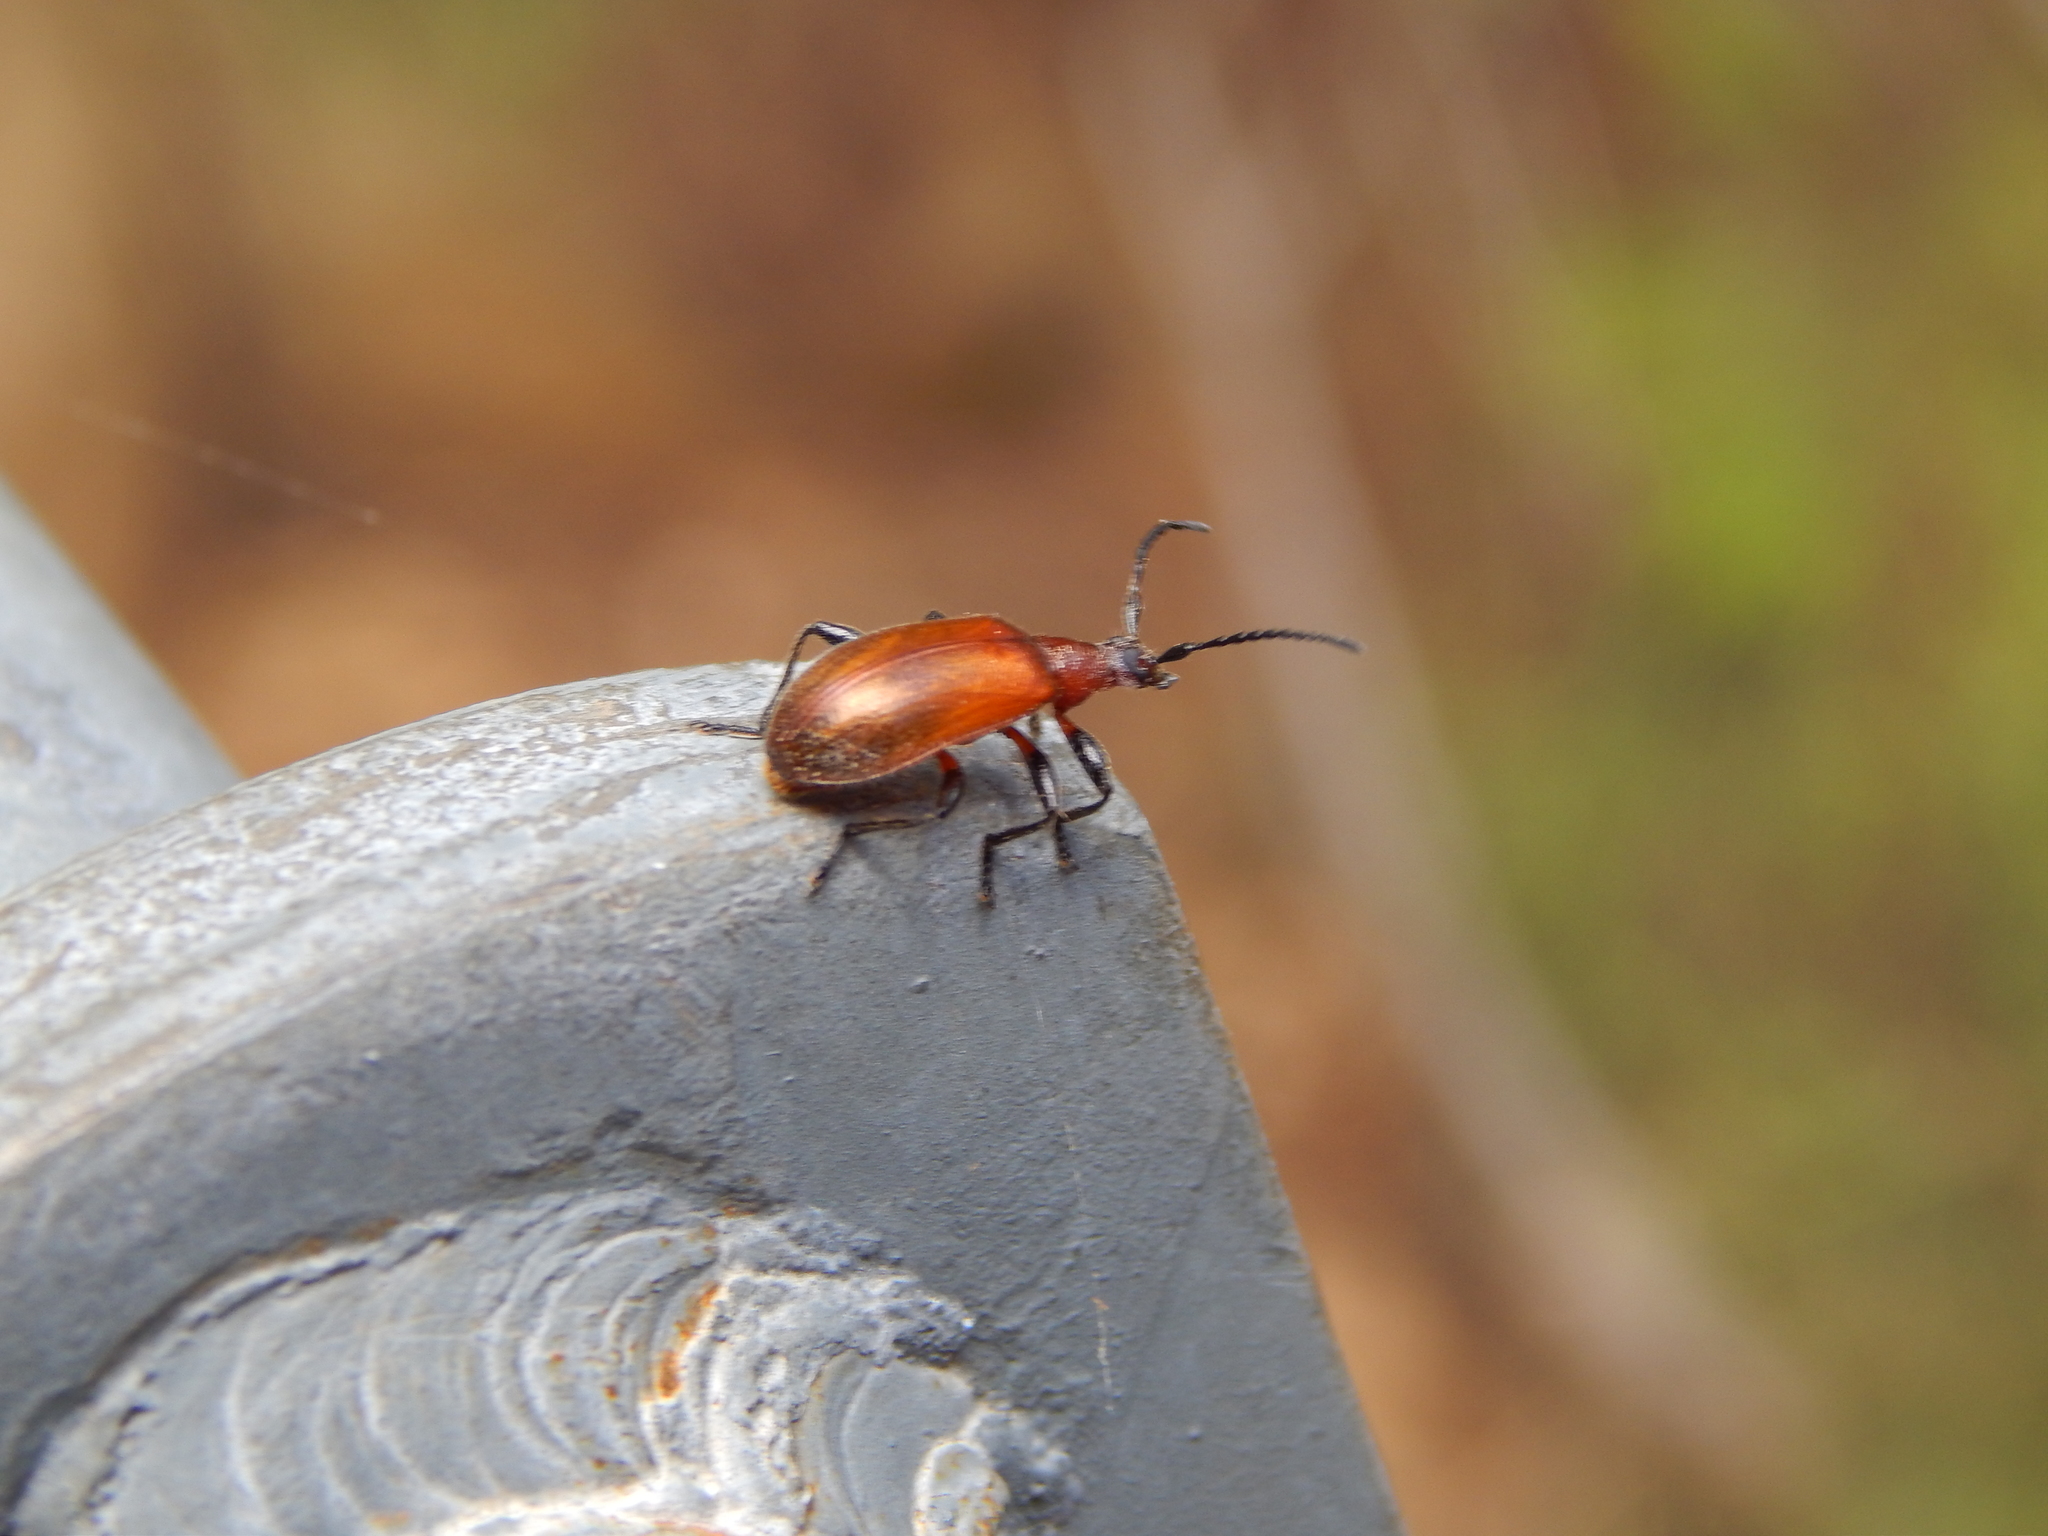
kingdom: Animalia
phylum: Arthropoda
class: Insecta
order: Coleoptera
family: Tenebrionidae
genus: Ecnolagria
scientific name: Ecnolagria
